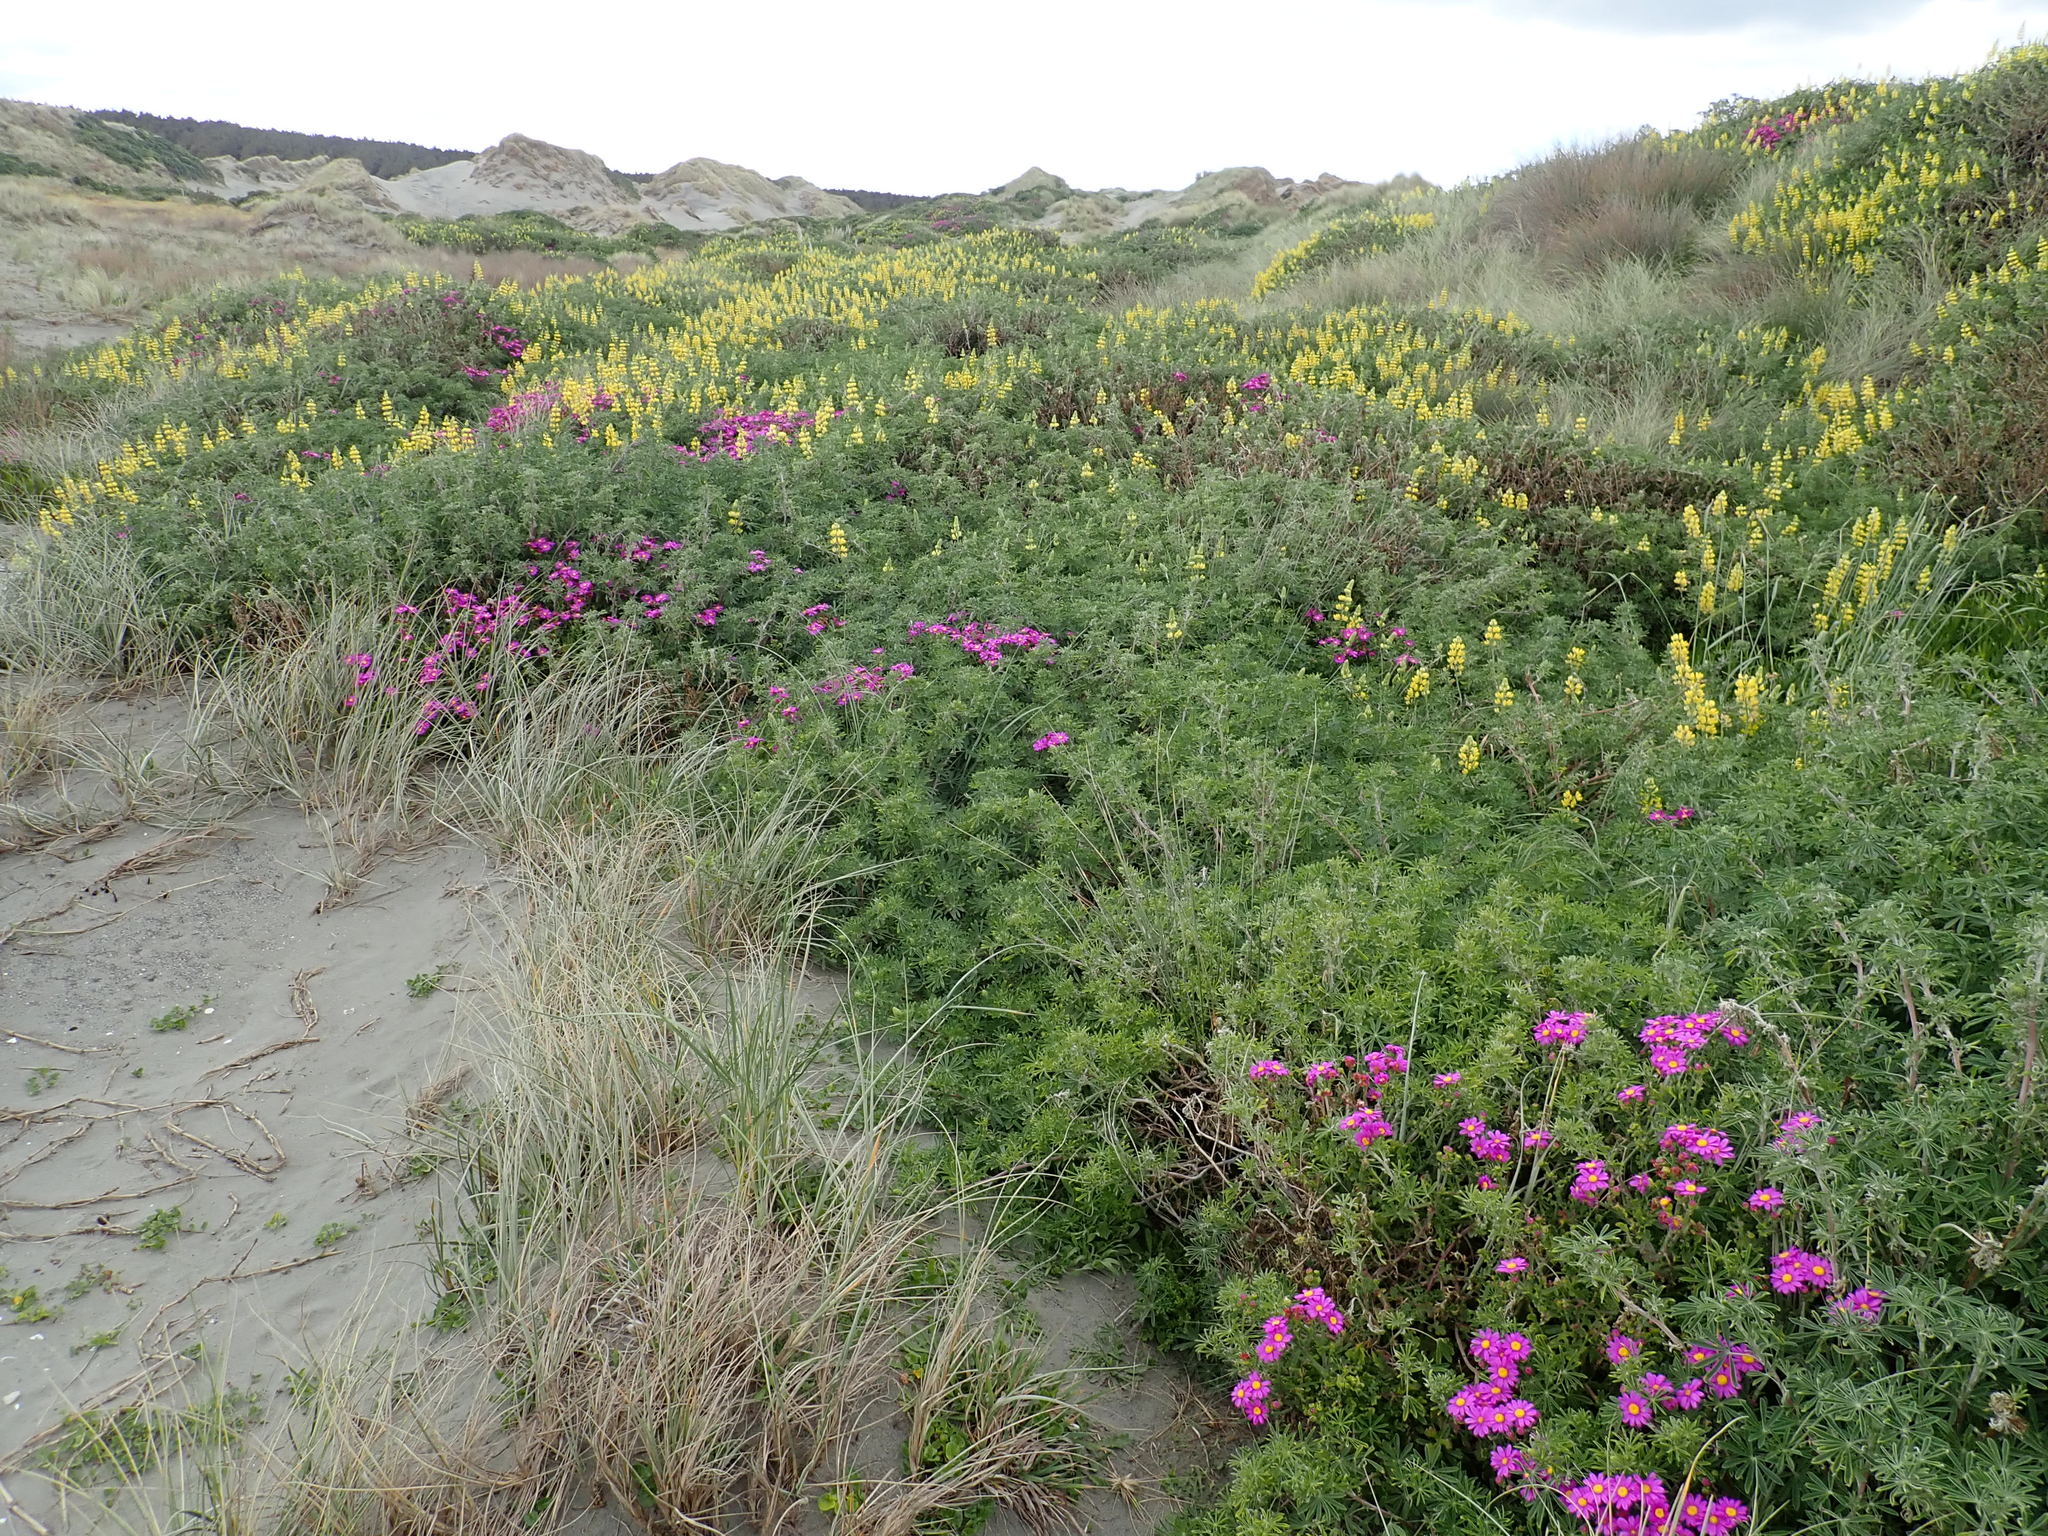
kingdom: Plantae
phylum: Tracheophyta
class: Magnoliopsida
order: Fabales
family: Fabaceae
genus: Lupinus
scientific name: Lupinus arboreus
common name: Yellow bush lupine
